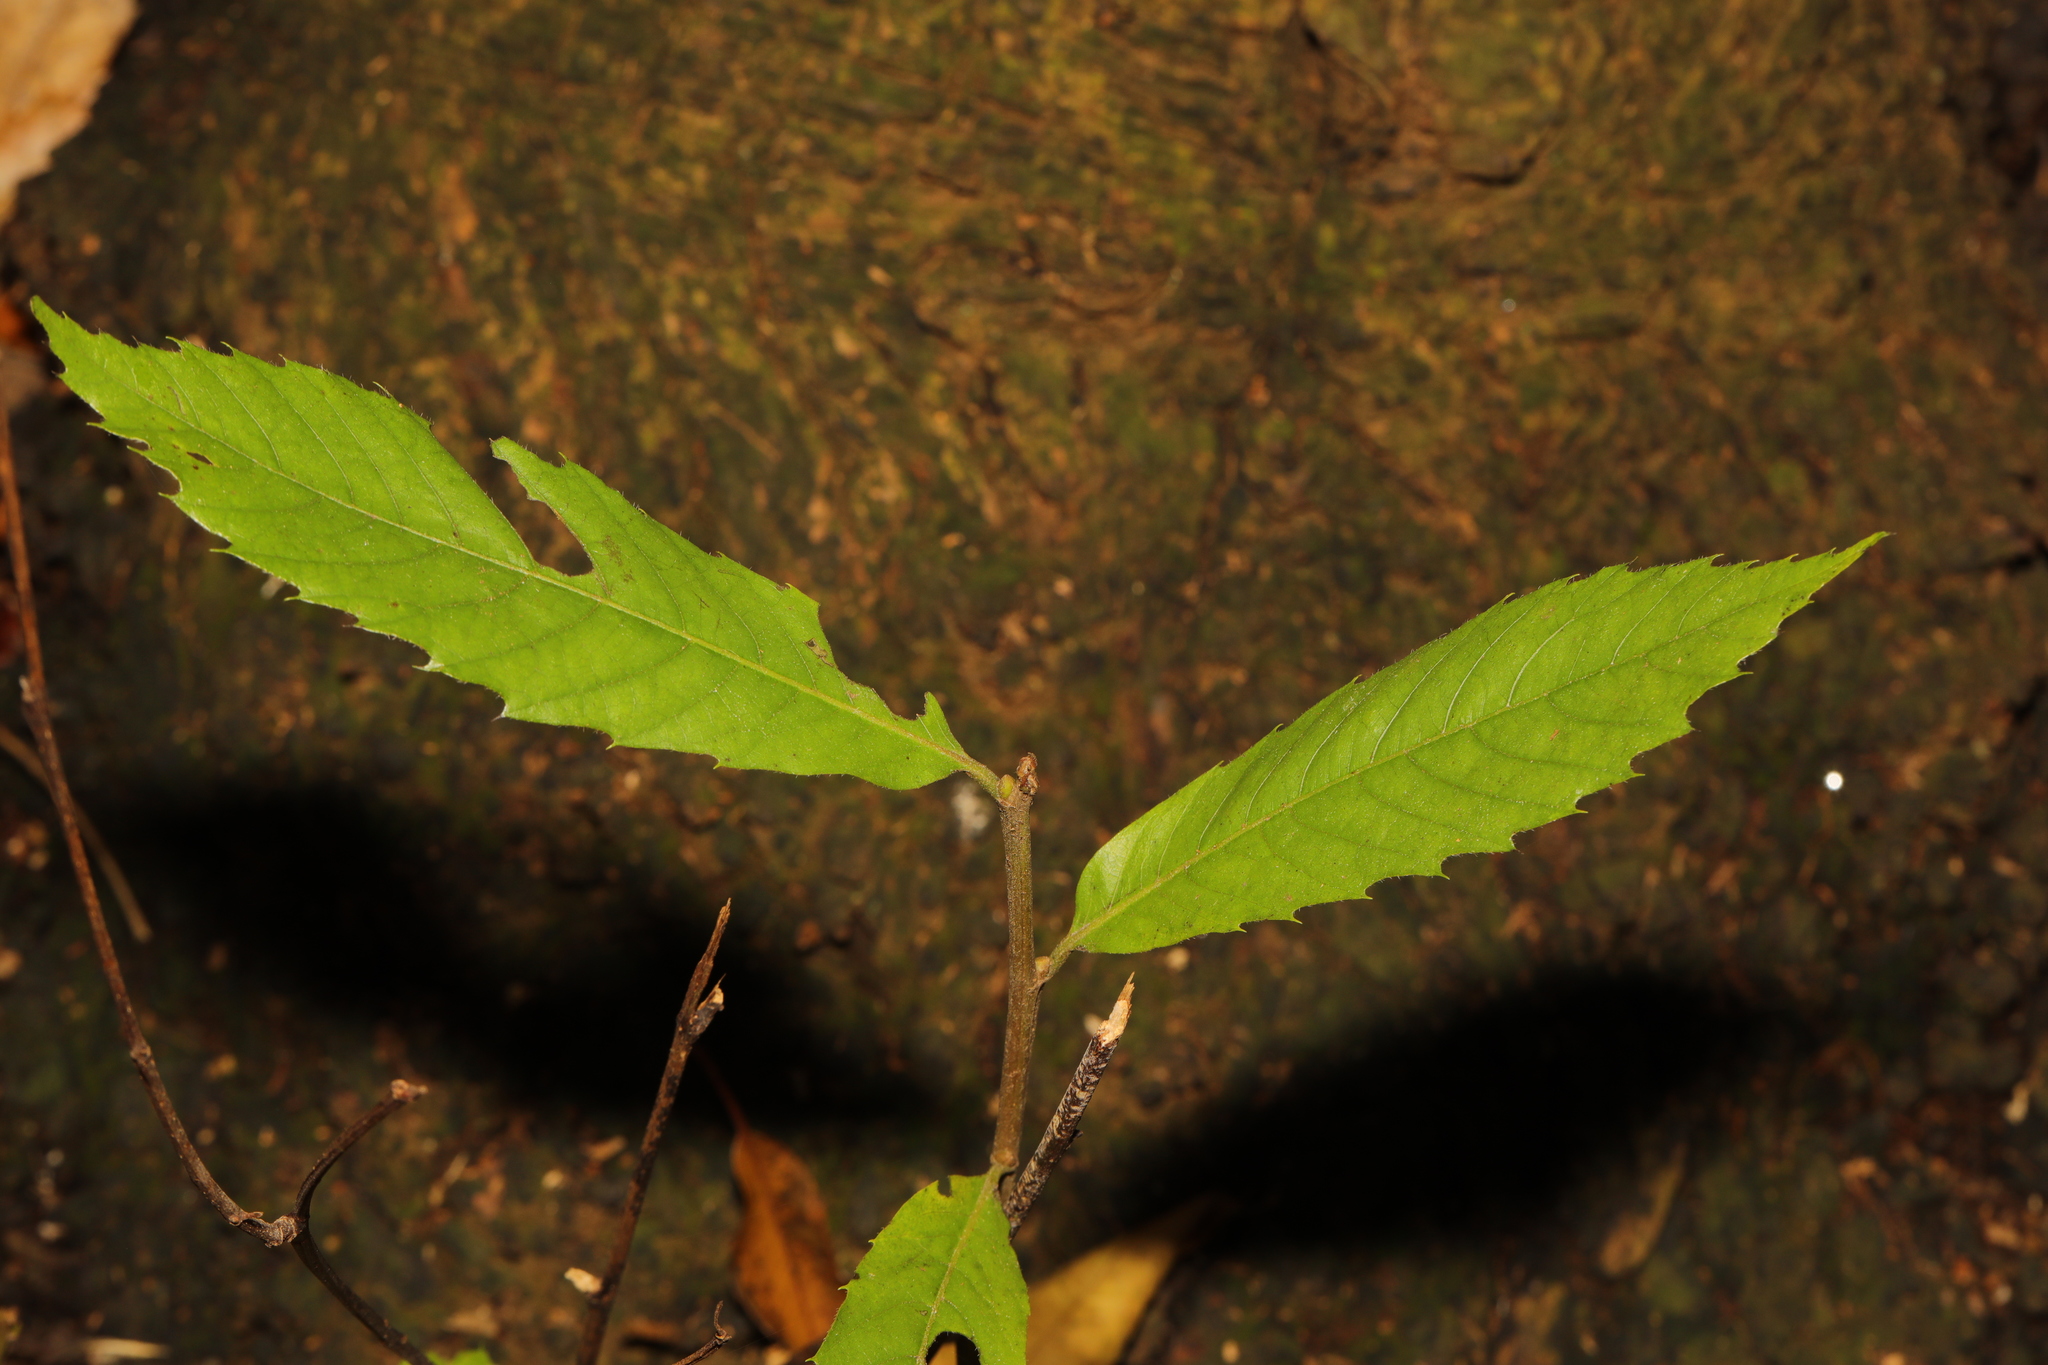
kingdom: Plantae
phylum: Tracheophyta
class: Magnoliopsida
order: Fagales
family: Fagaceae
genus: Castanea
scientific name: Castanea sativa
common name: Sweet chestnut
